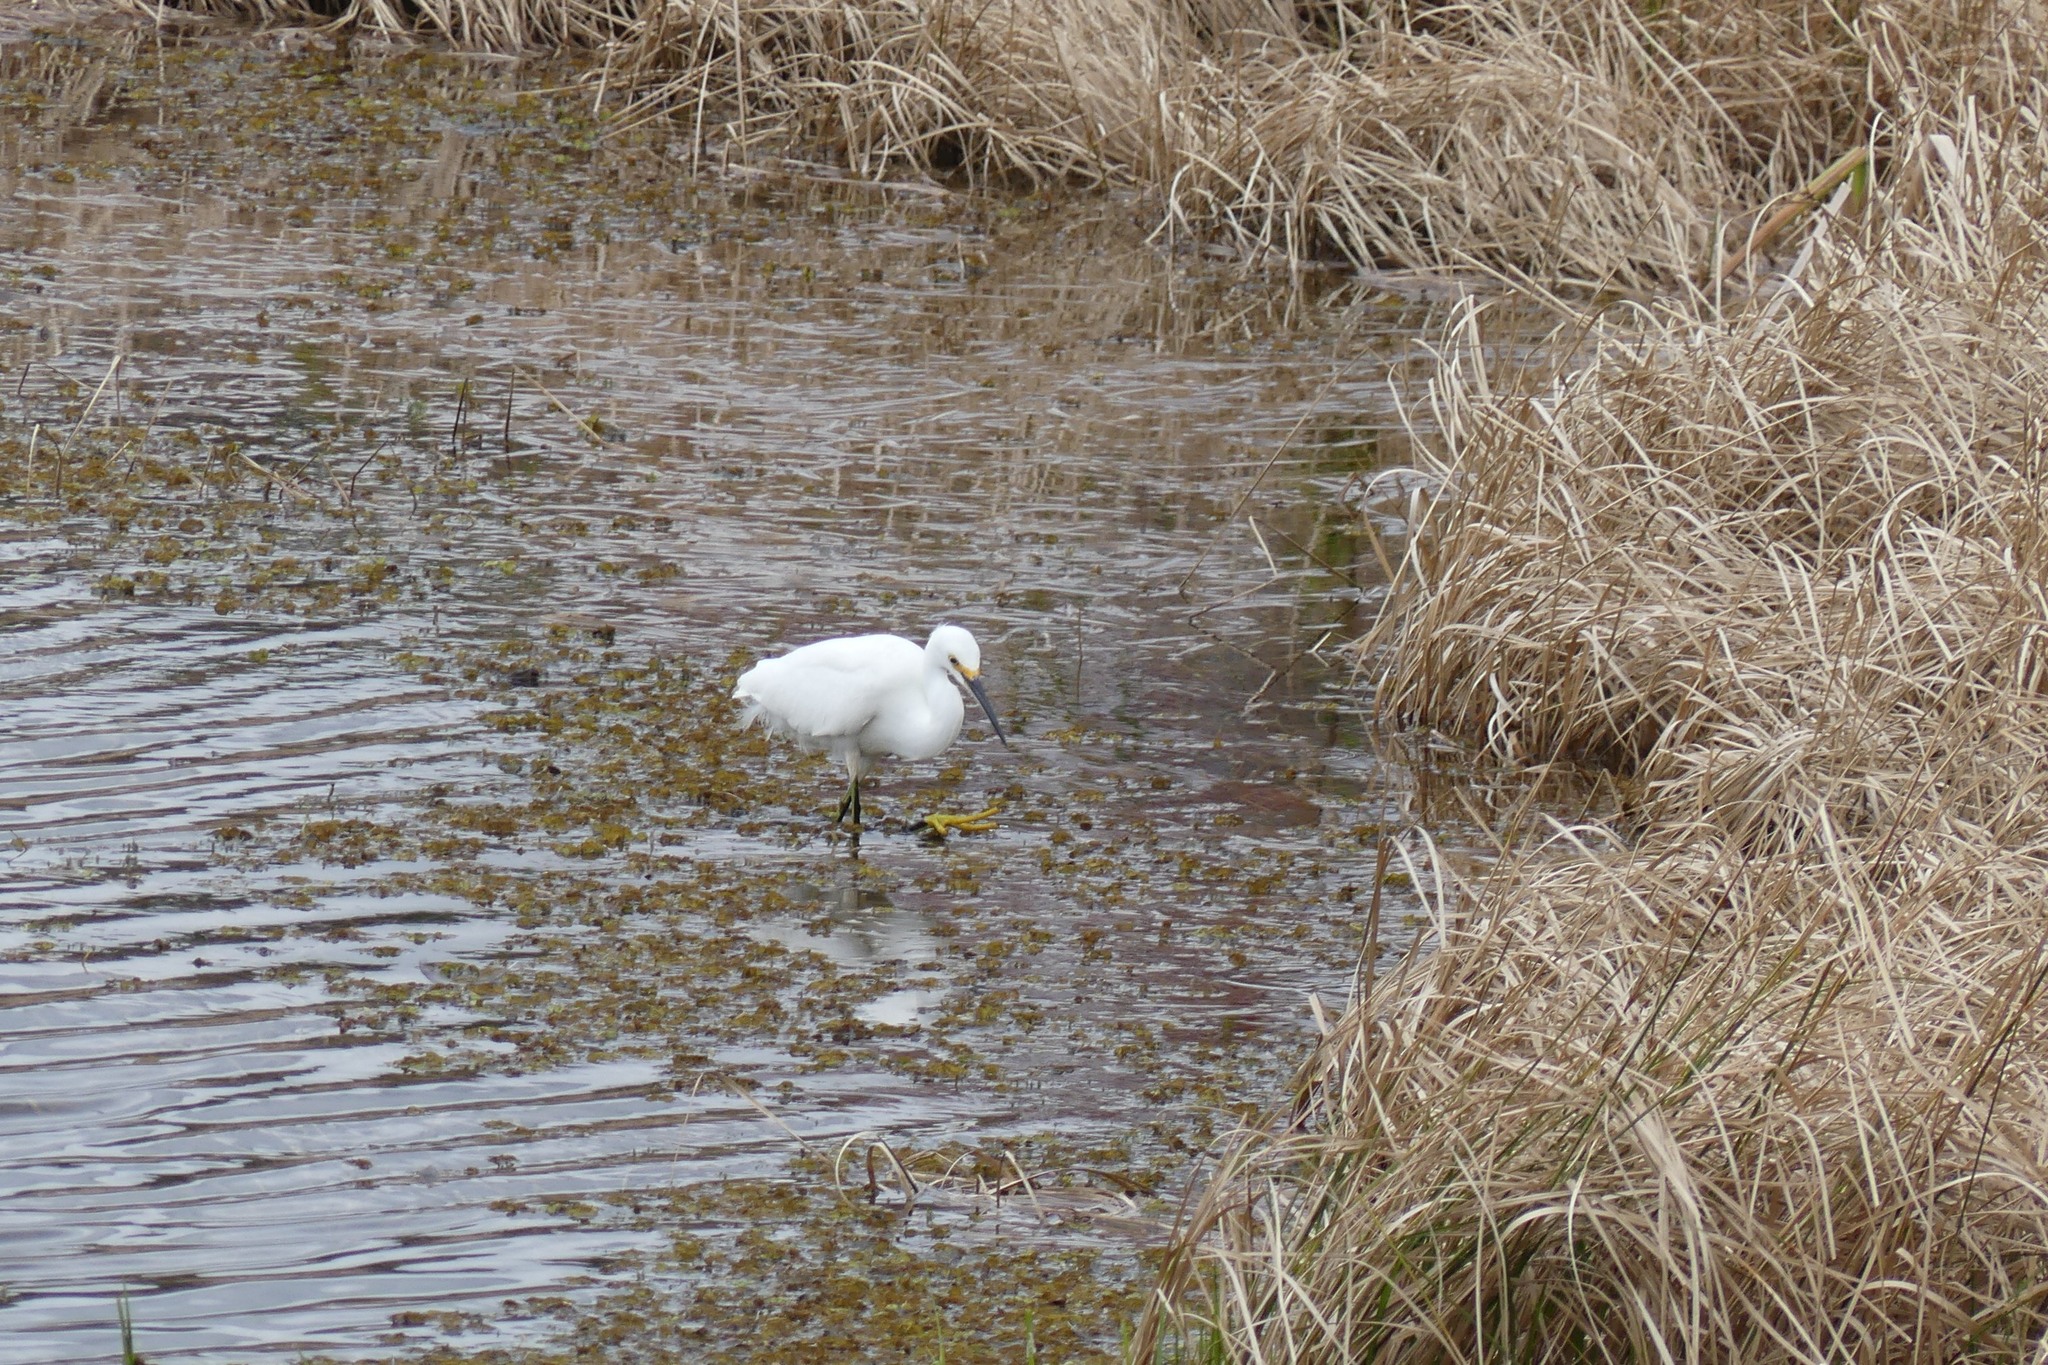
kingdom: Animalia
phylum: Chordata
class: Aves
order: Pelecaniformes
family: Ardeidae
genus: Egretta
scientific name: Egretta thula
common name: Snowy egret
